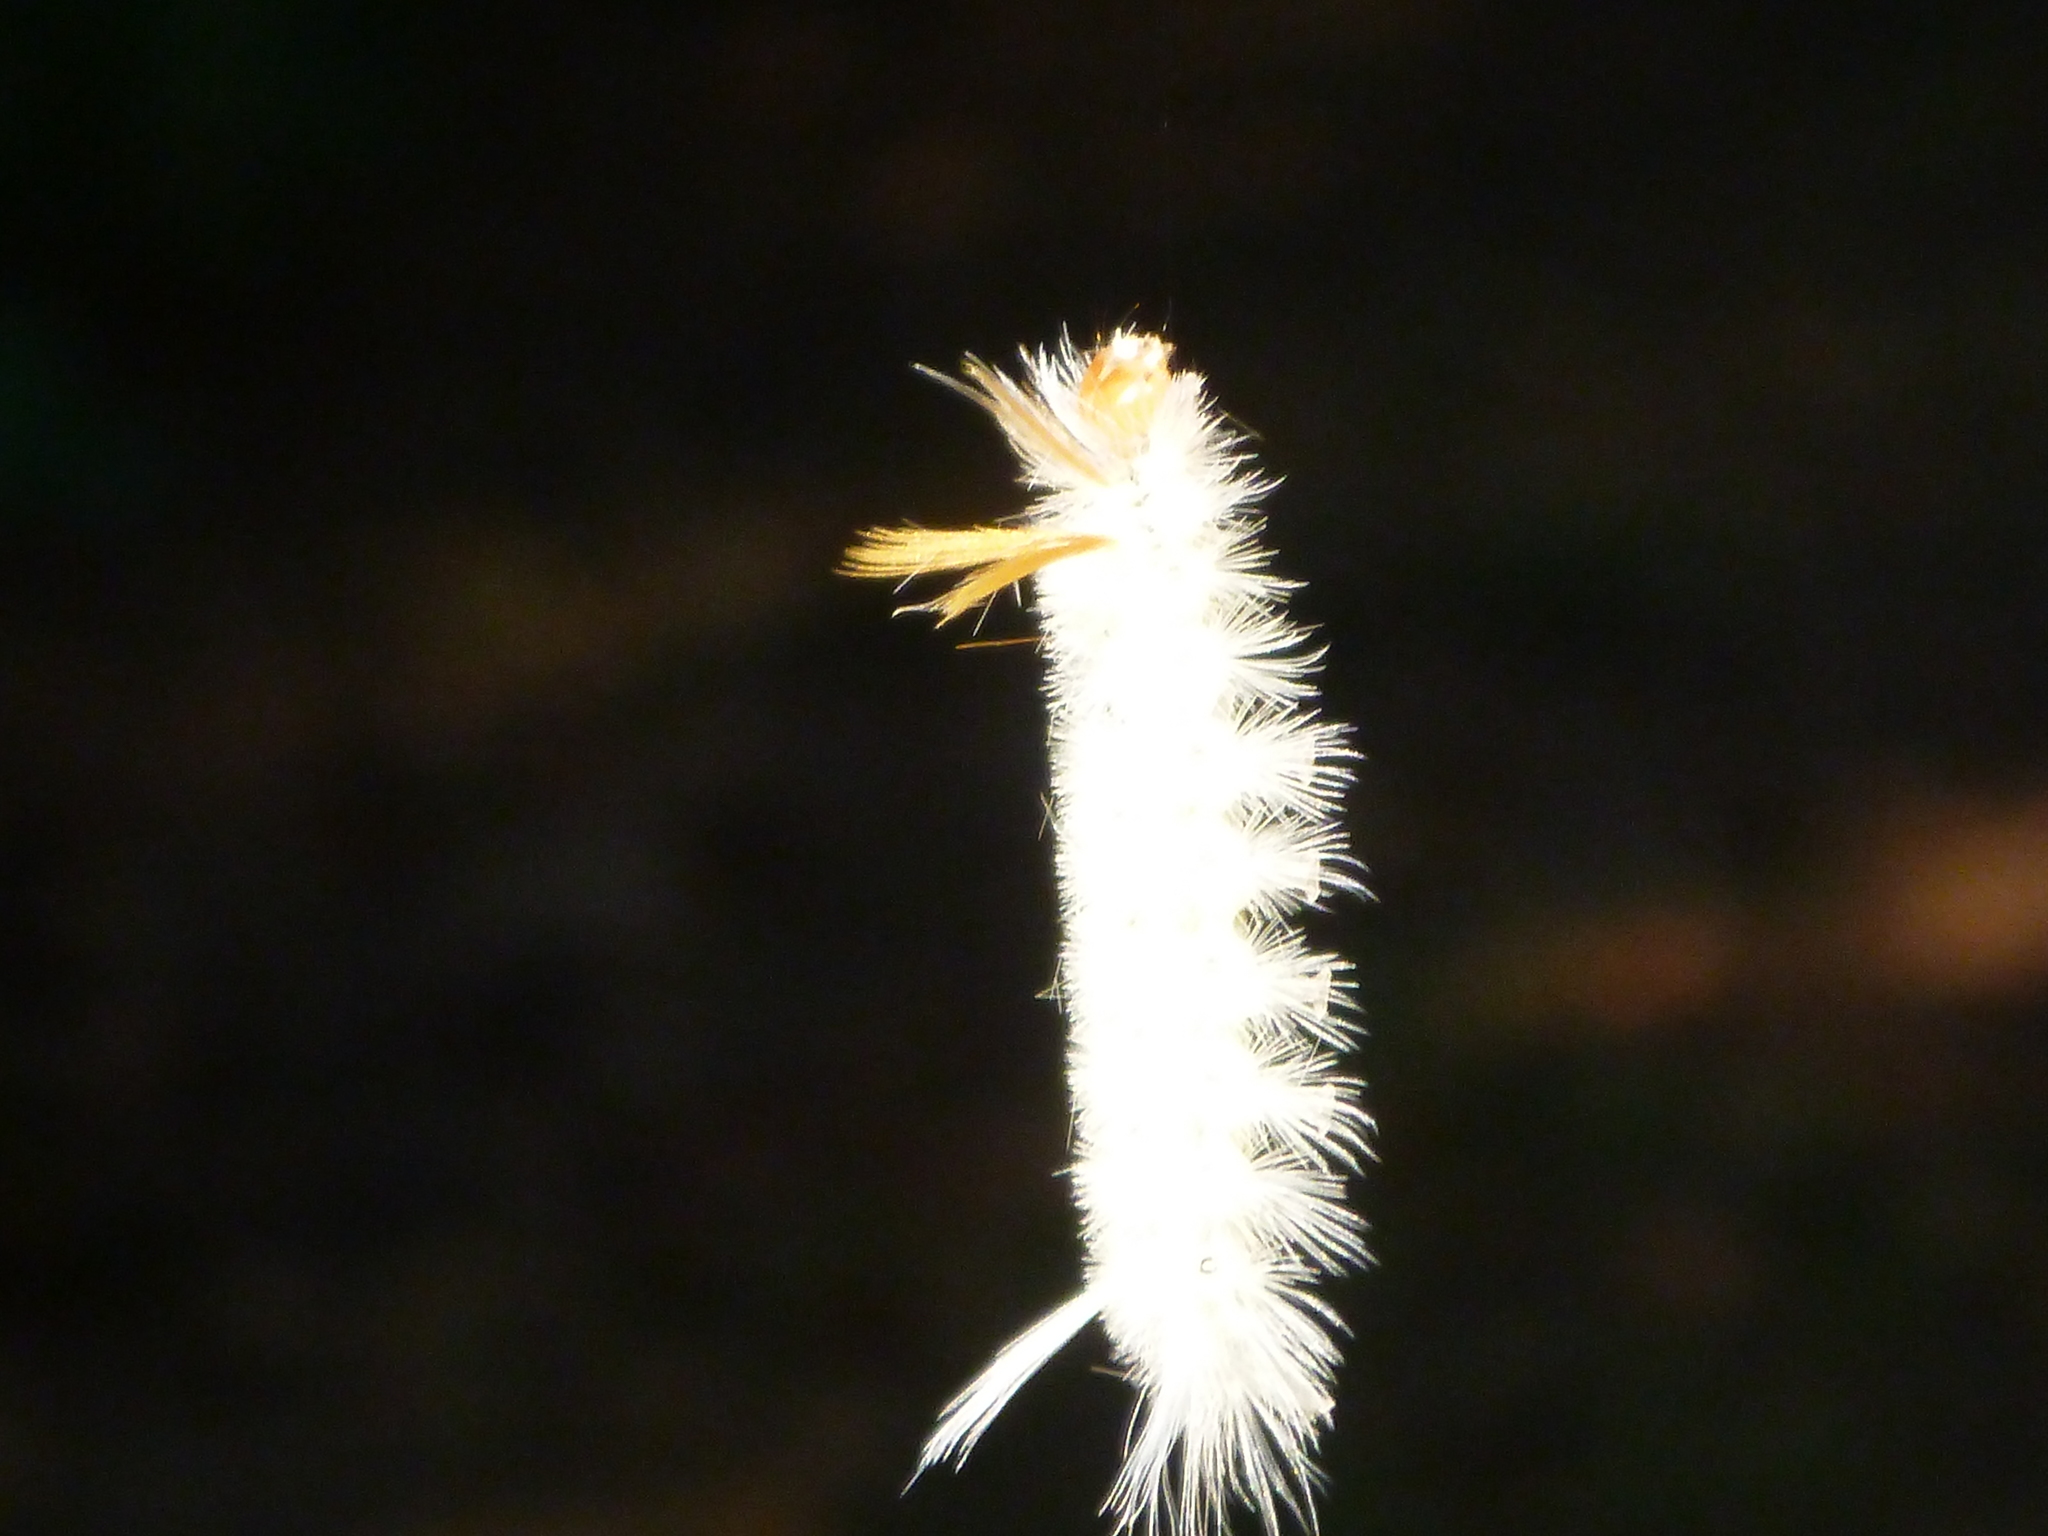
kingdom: Animalia
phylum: Arthropoda
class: Insecta
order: Lepidoptera
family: Erebidae
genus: Halysidota
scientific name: Halysidota harrisii
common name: Sycamore tussock moth
